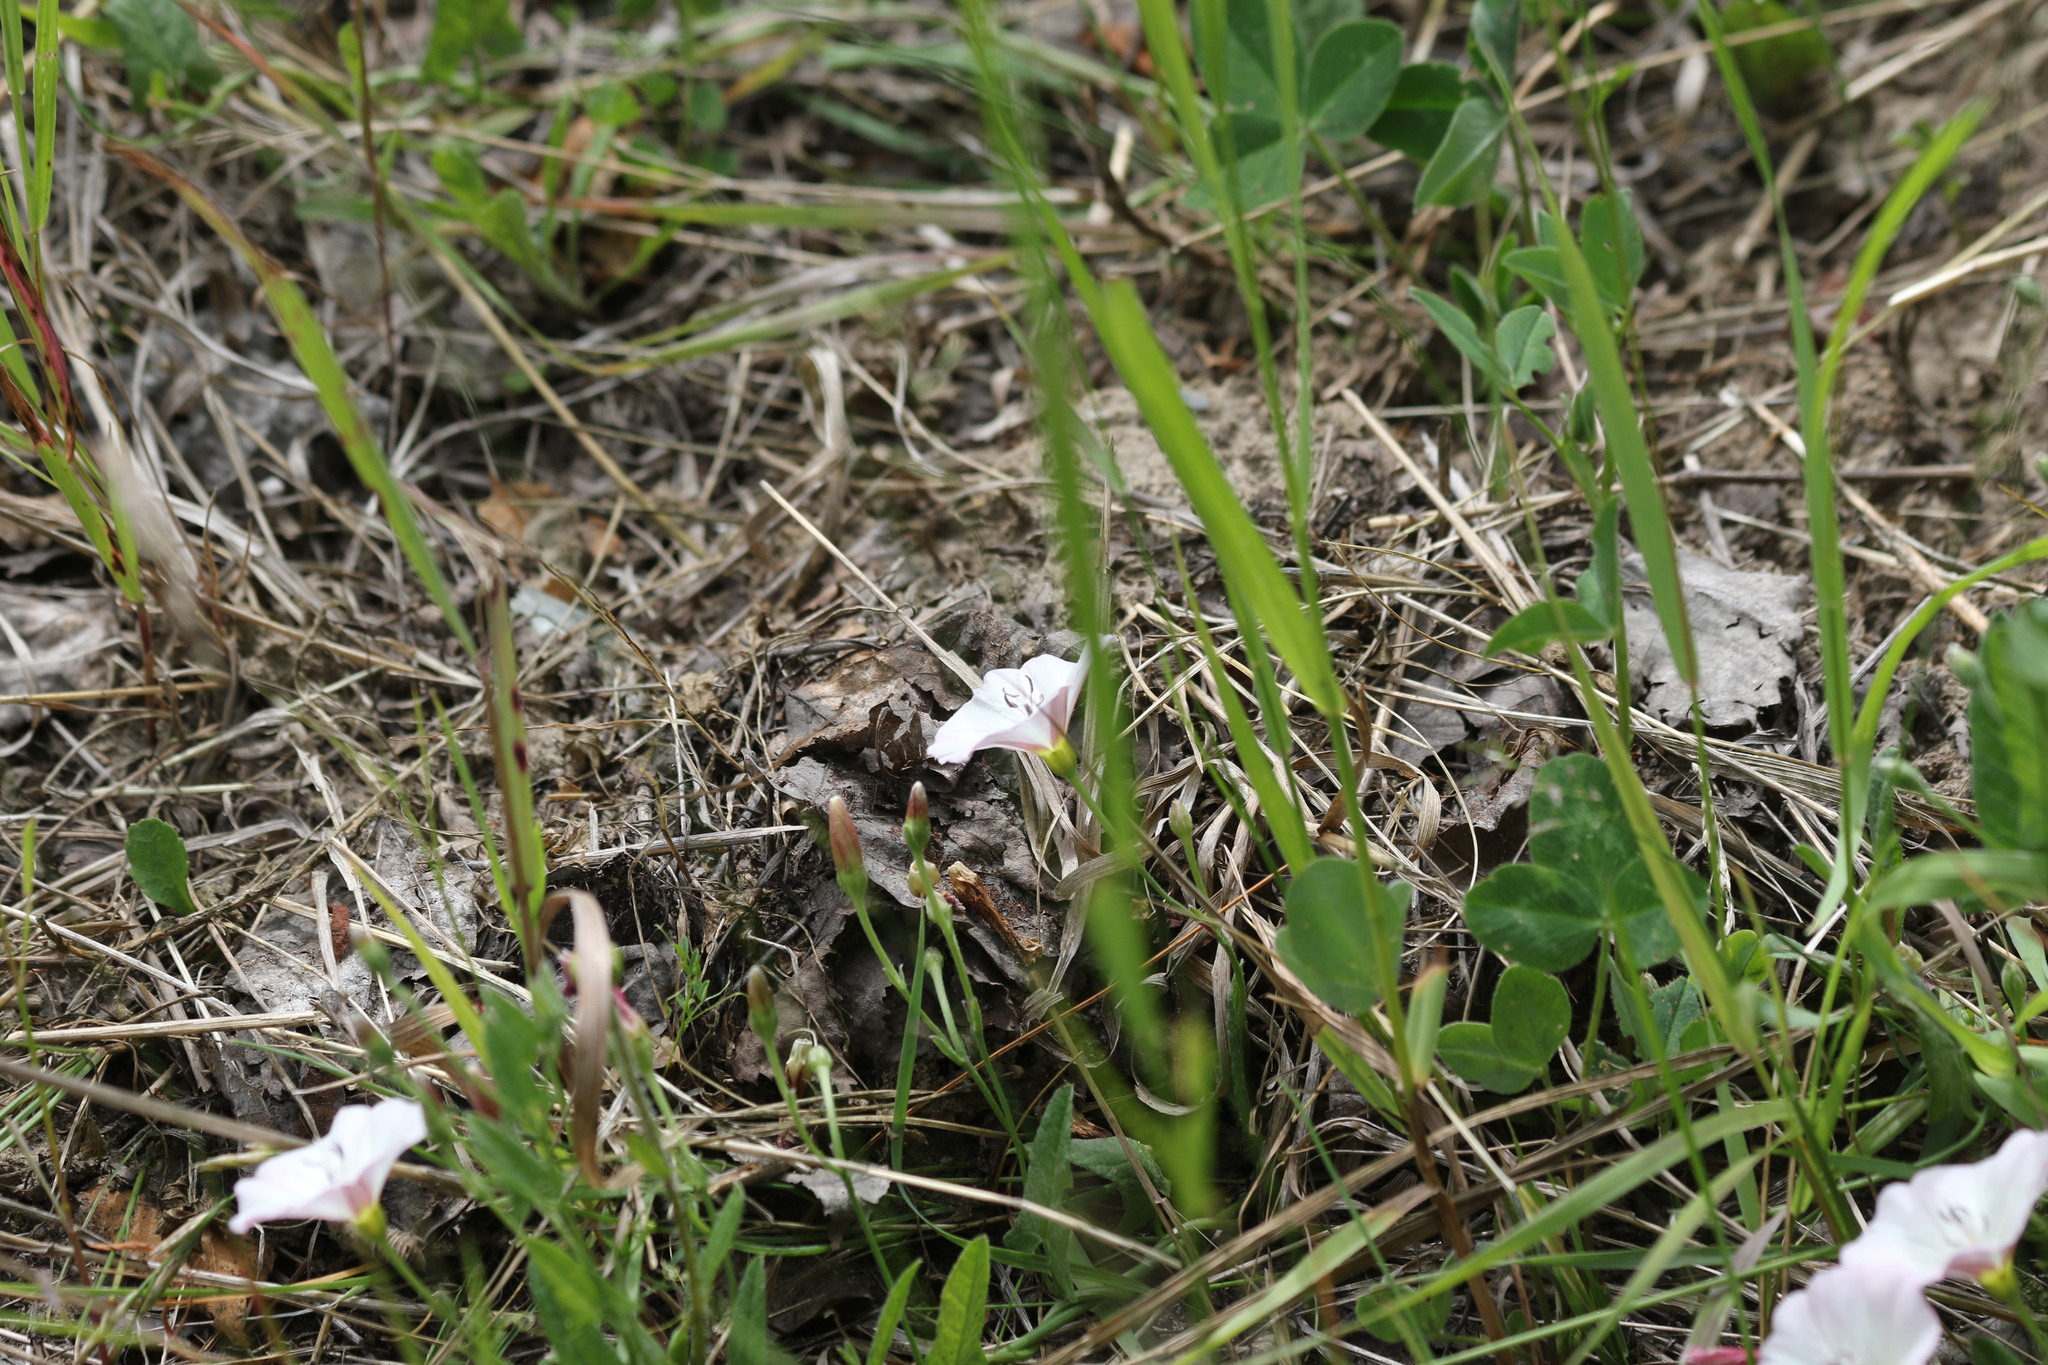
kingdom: Plantae
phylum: Tracheophyta
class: Magnoliopsida
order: Solanales
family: Convolvulaceae
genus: Convolvulus
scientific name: Convolvulus arvensis
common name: Field bindweed
